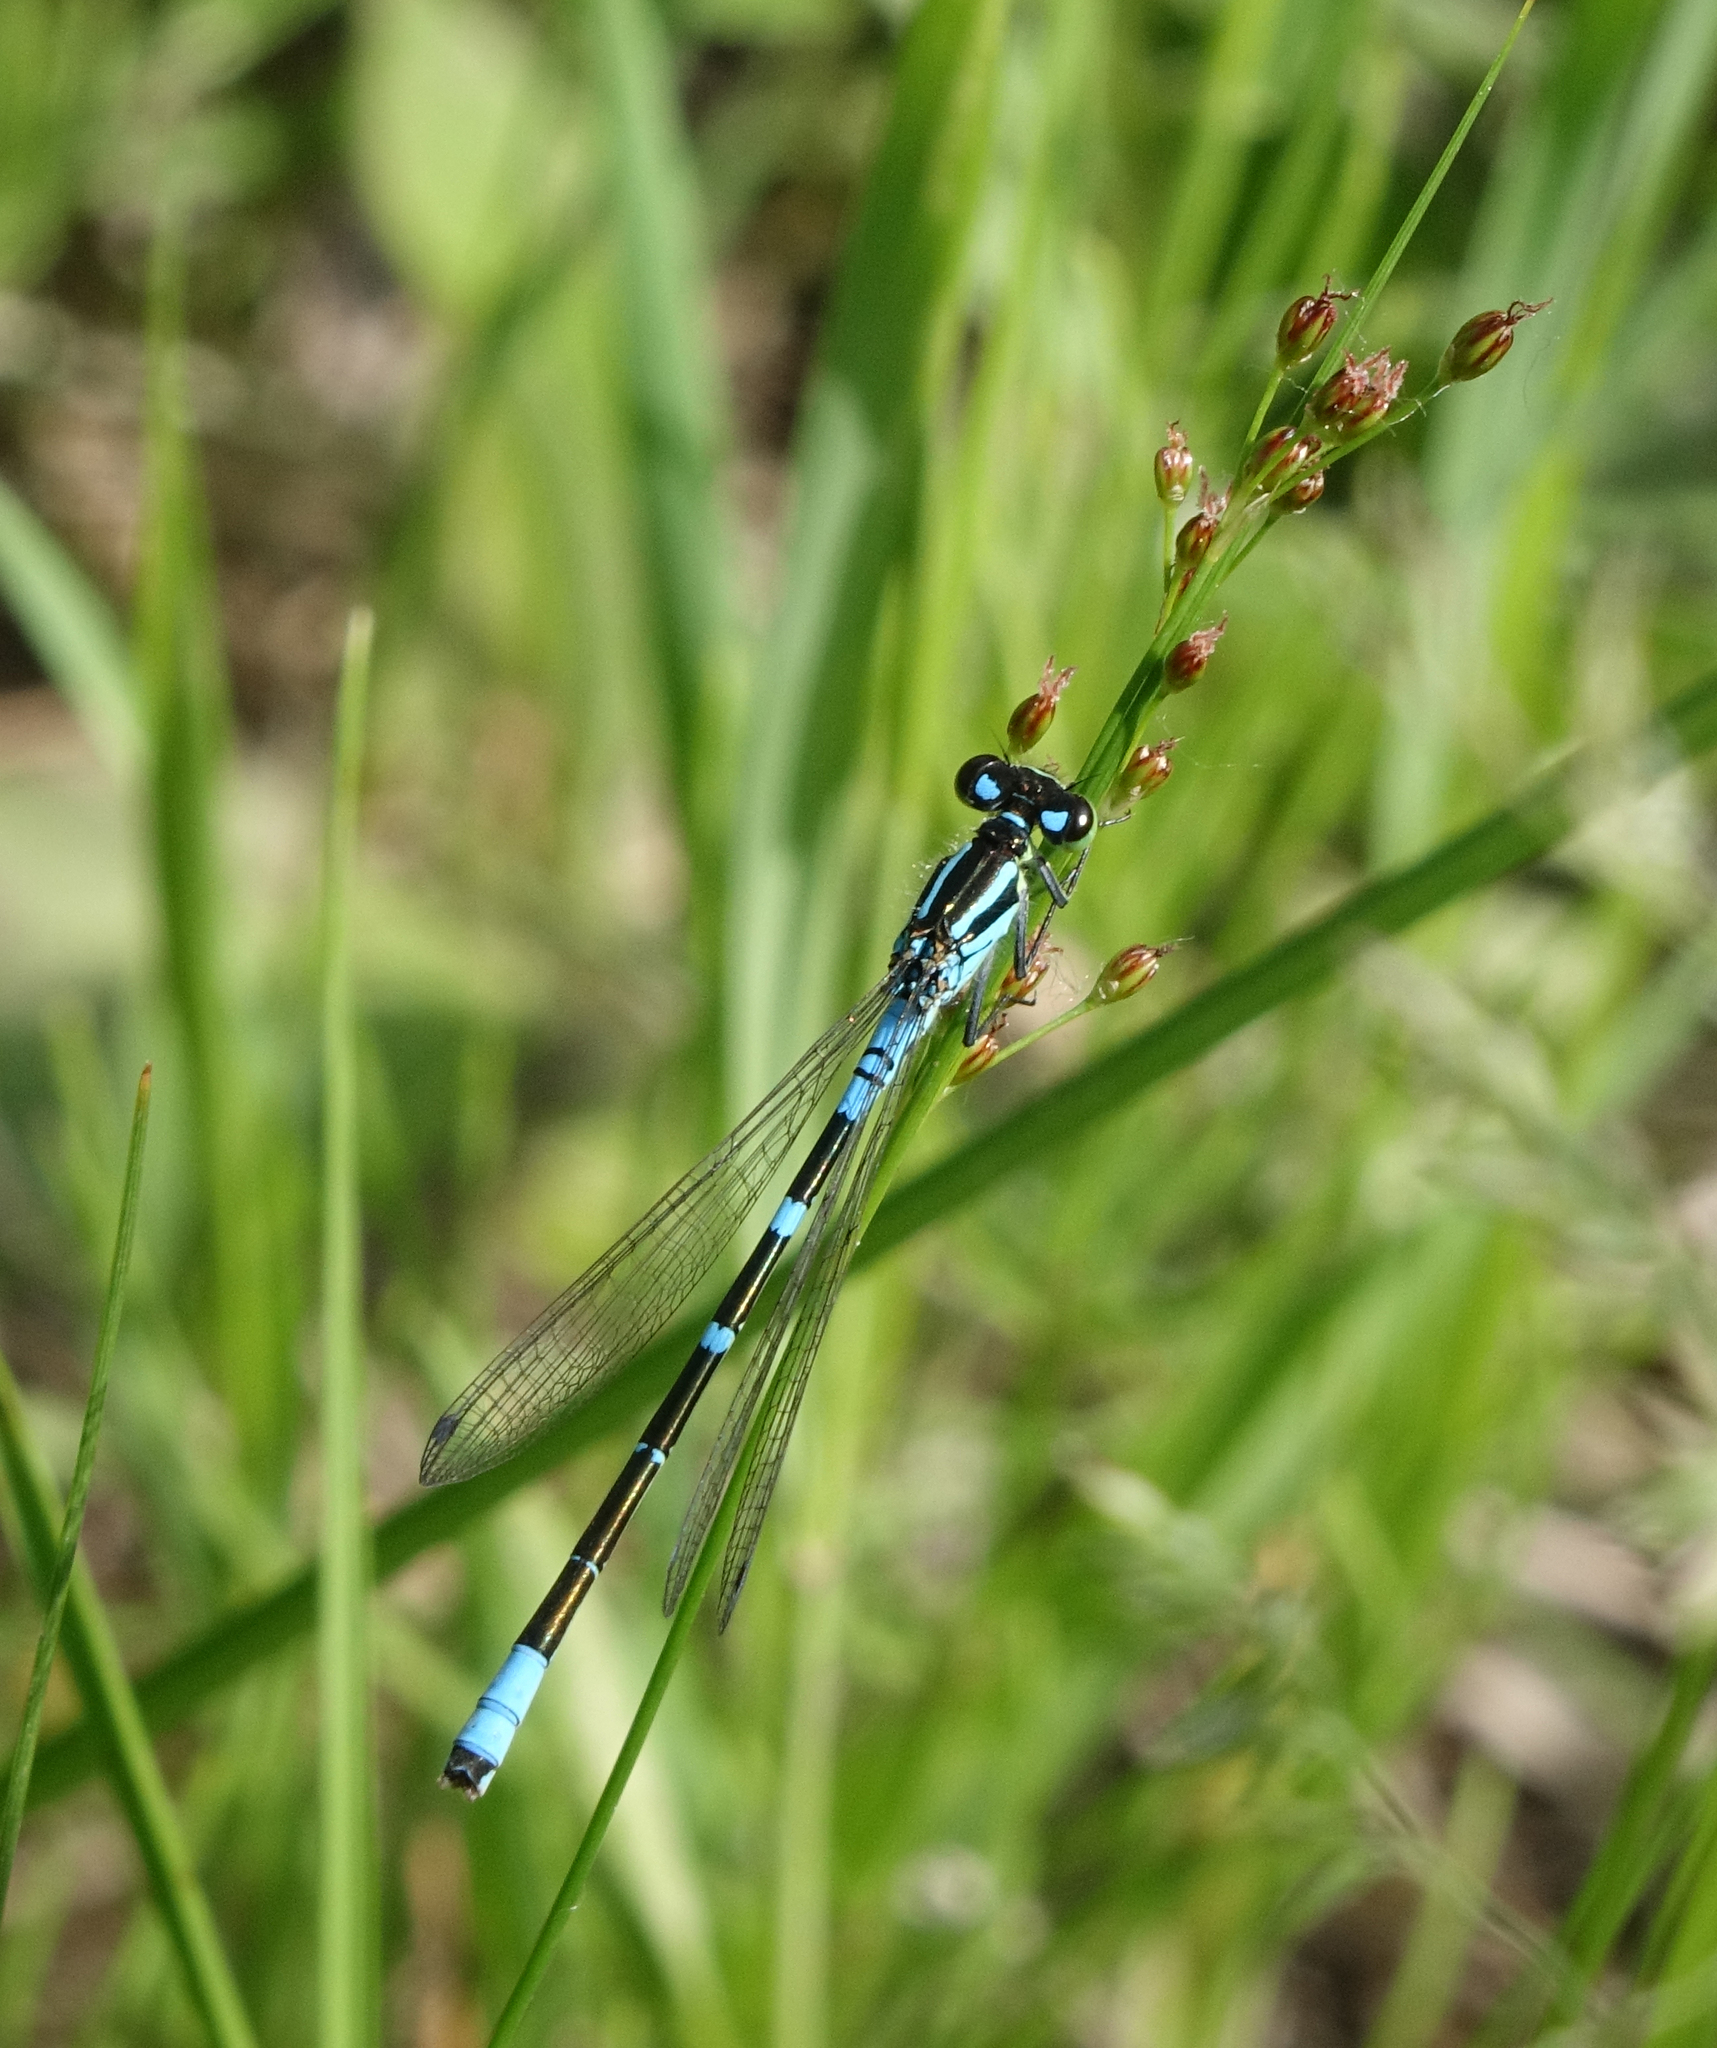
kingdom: Plantae
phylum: Tracheophyta
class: Liliopsida
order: Poales
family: Juncaceae
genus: Juncus
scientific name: Juncus compressus
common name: Round-fruited rush
